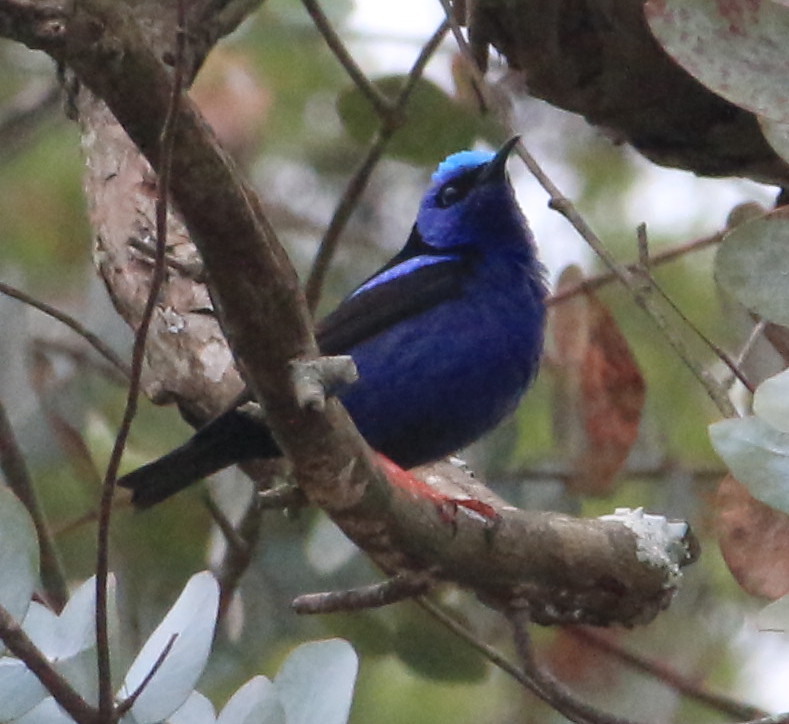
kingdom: Animalia
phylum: Chordata
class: Aves
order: Passeriformes
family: Thraupidae
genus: Cyanerpes
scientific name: Cyanerpes cyaneus
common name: Red-legged honeycreeper
